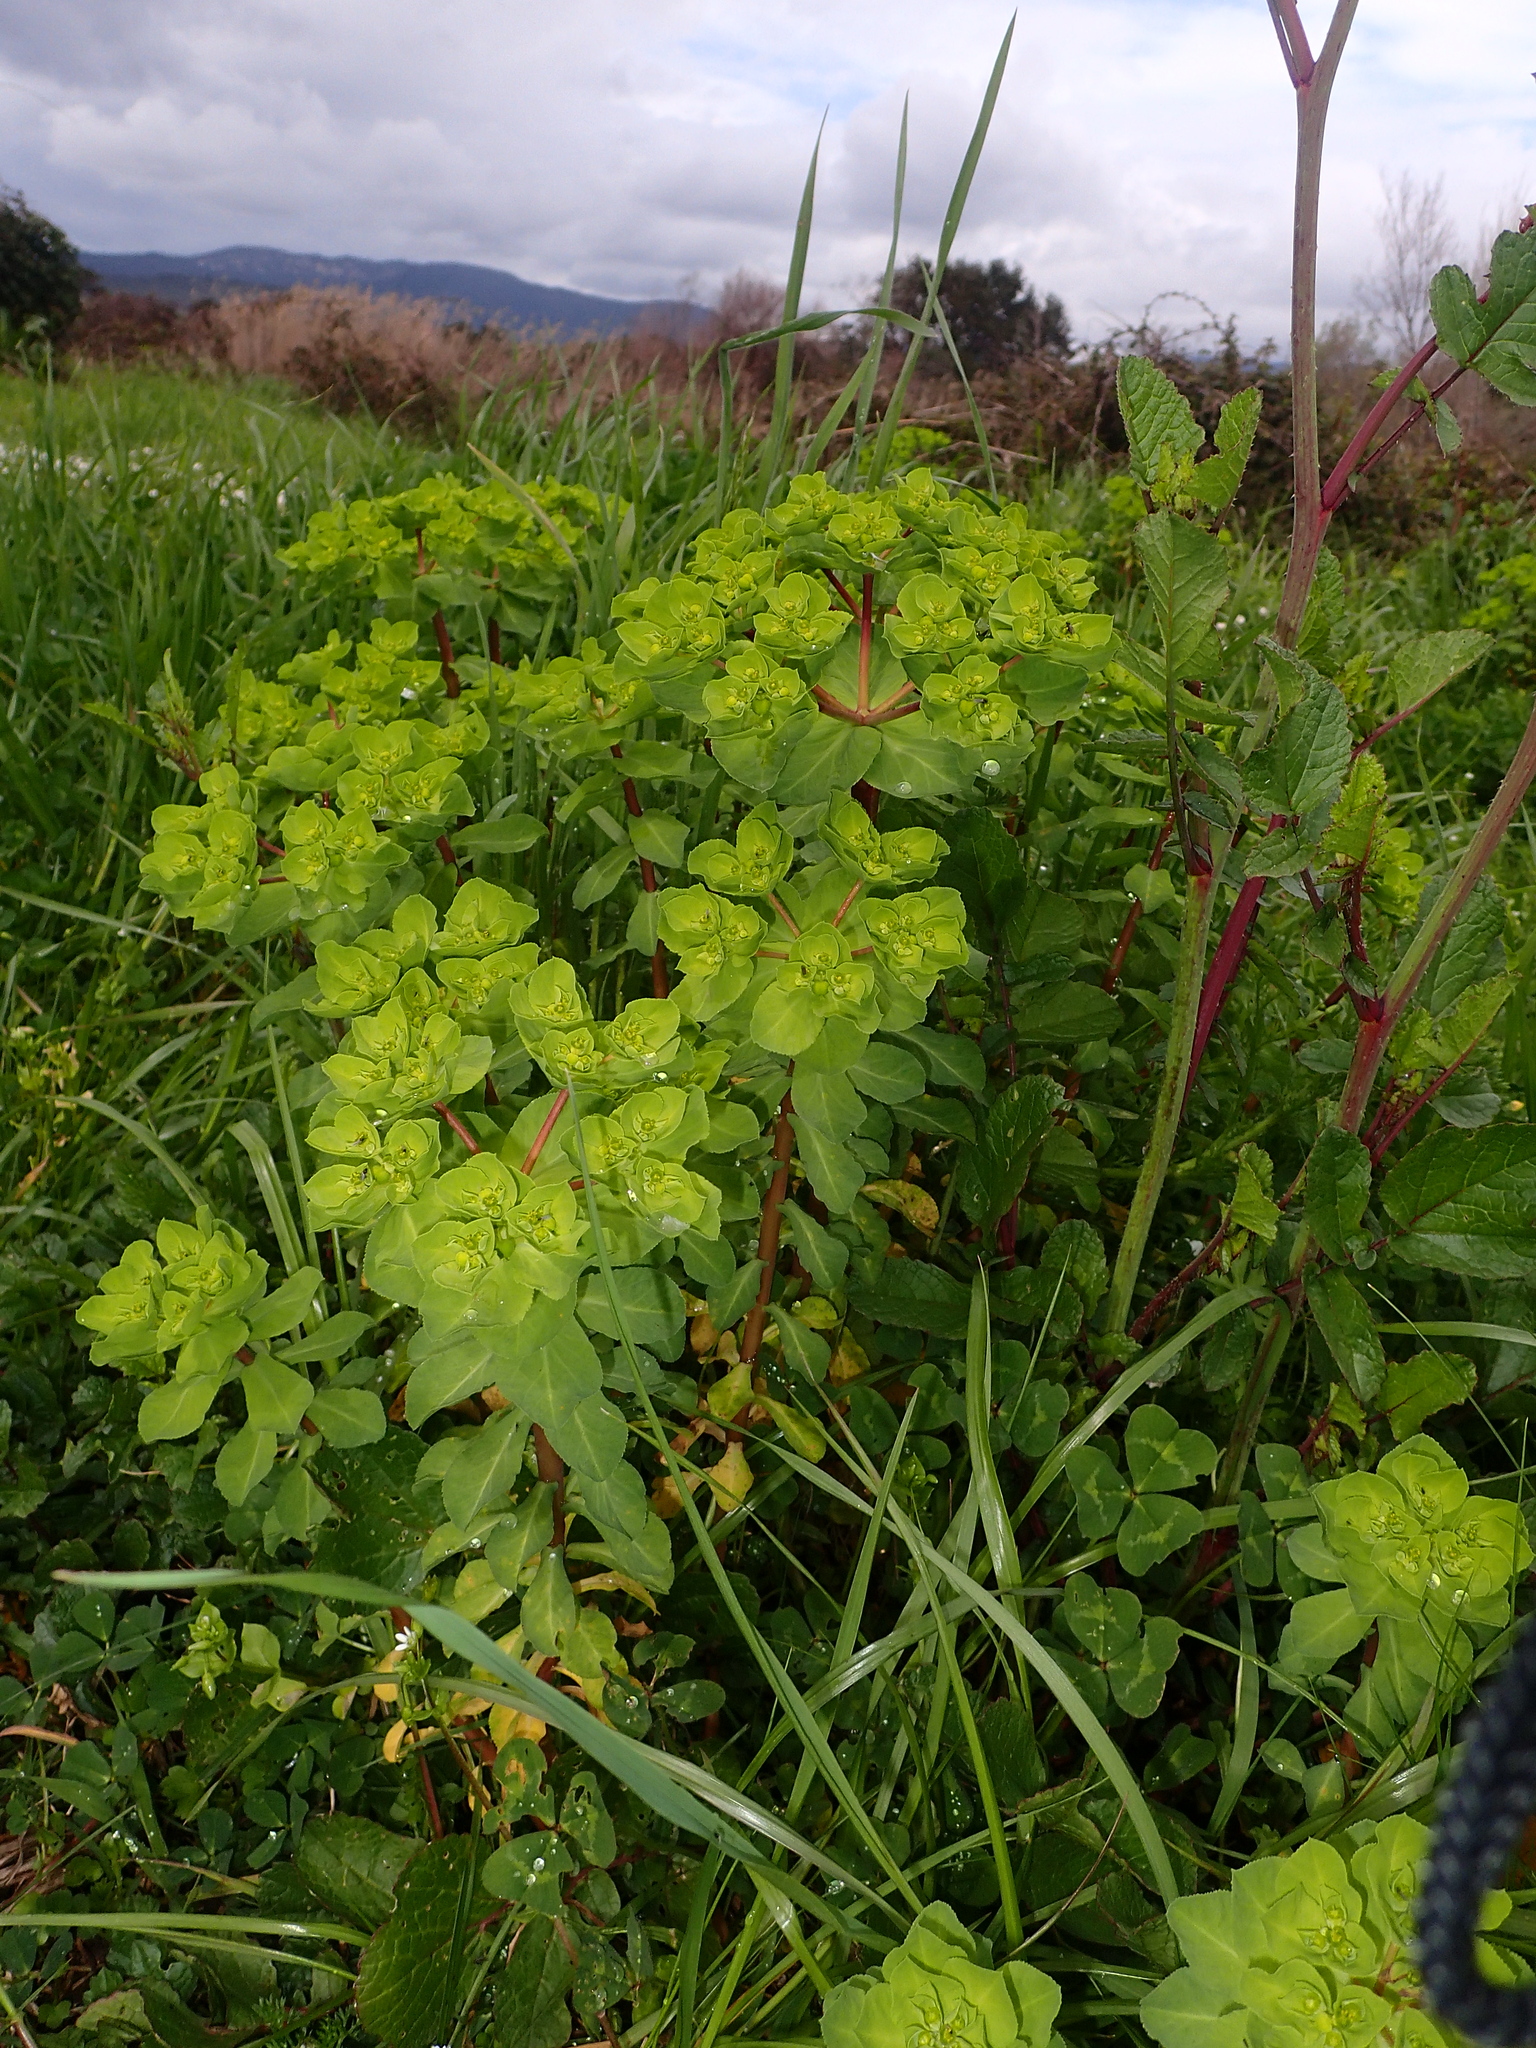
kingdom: Plantae
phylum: Tracheophyta
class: Magnoliopsida
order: Malpighiales
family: Euphorbiaceae
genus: Euphorbia
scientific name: Euphorbia helioscopia
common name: Sun spurge
